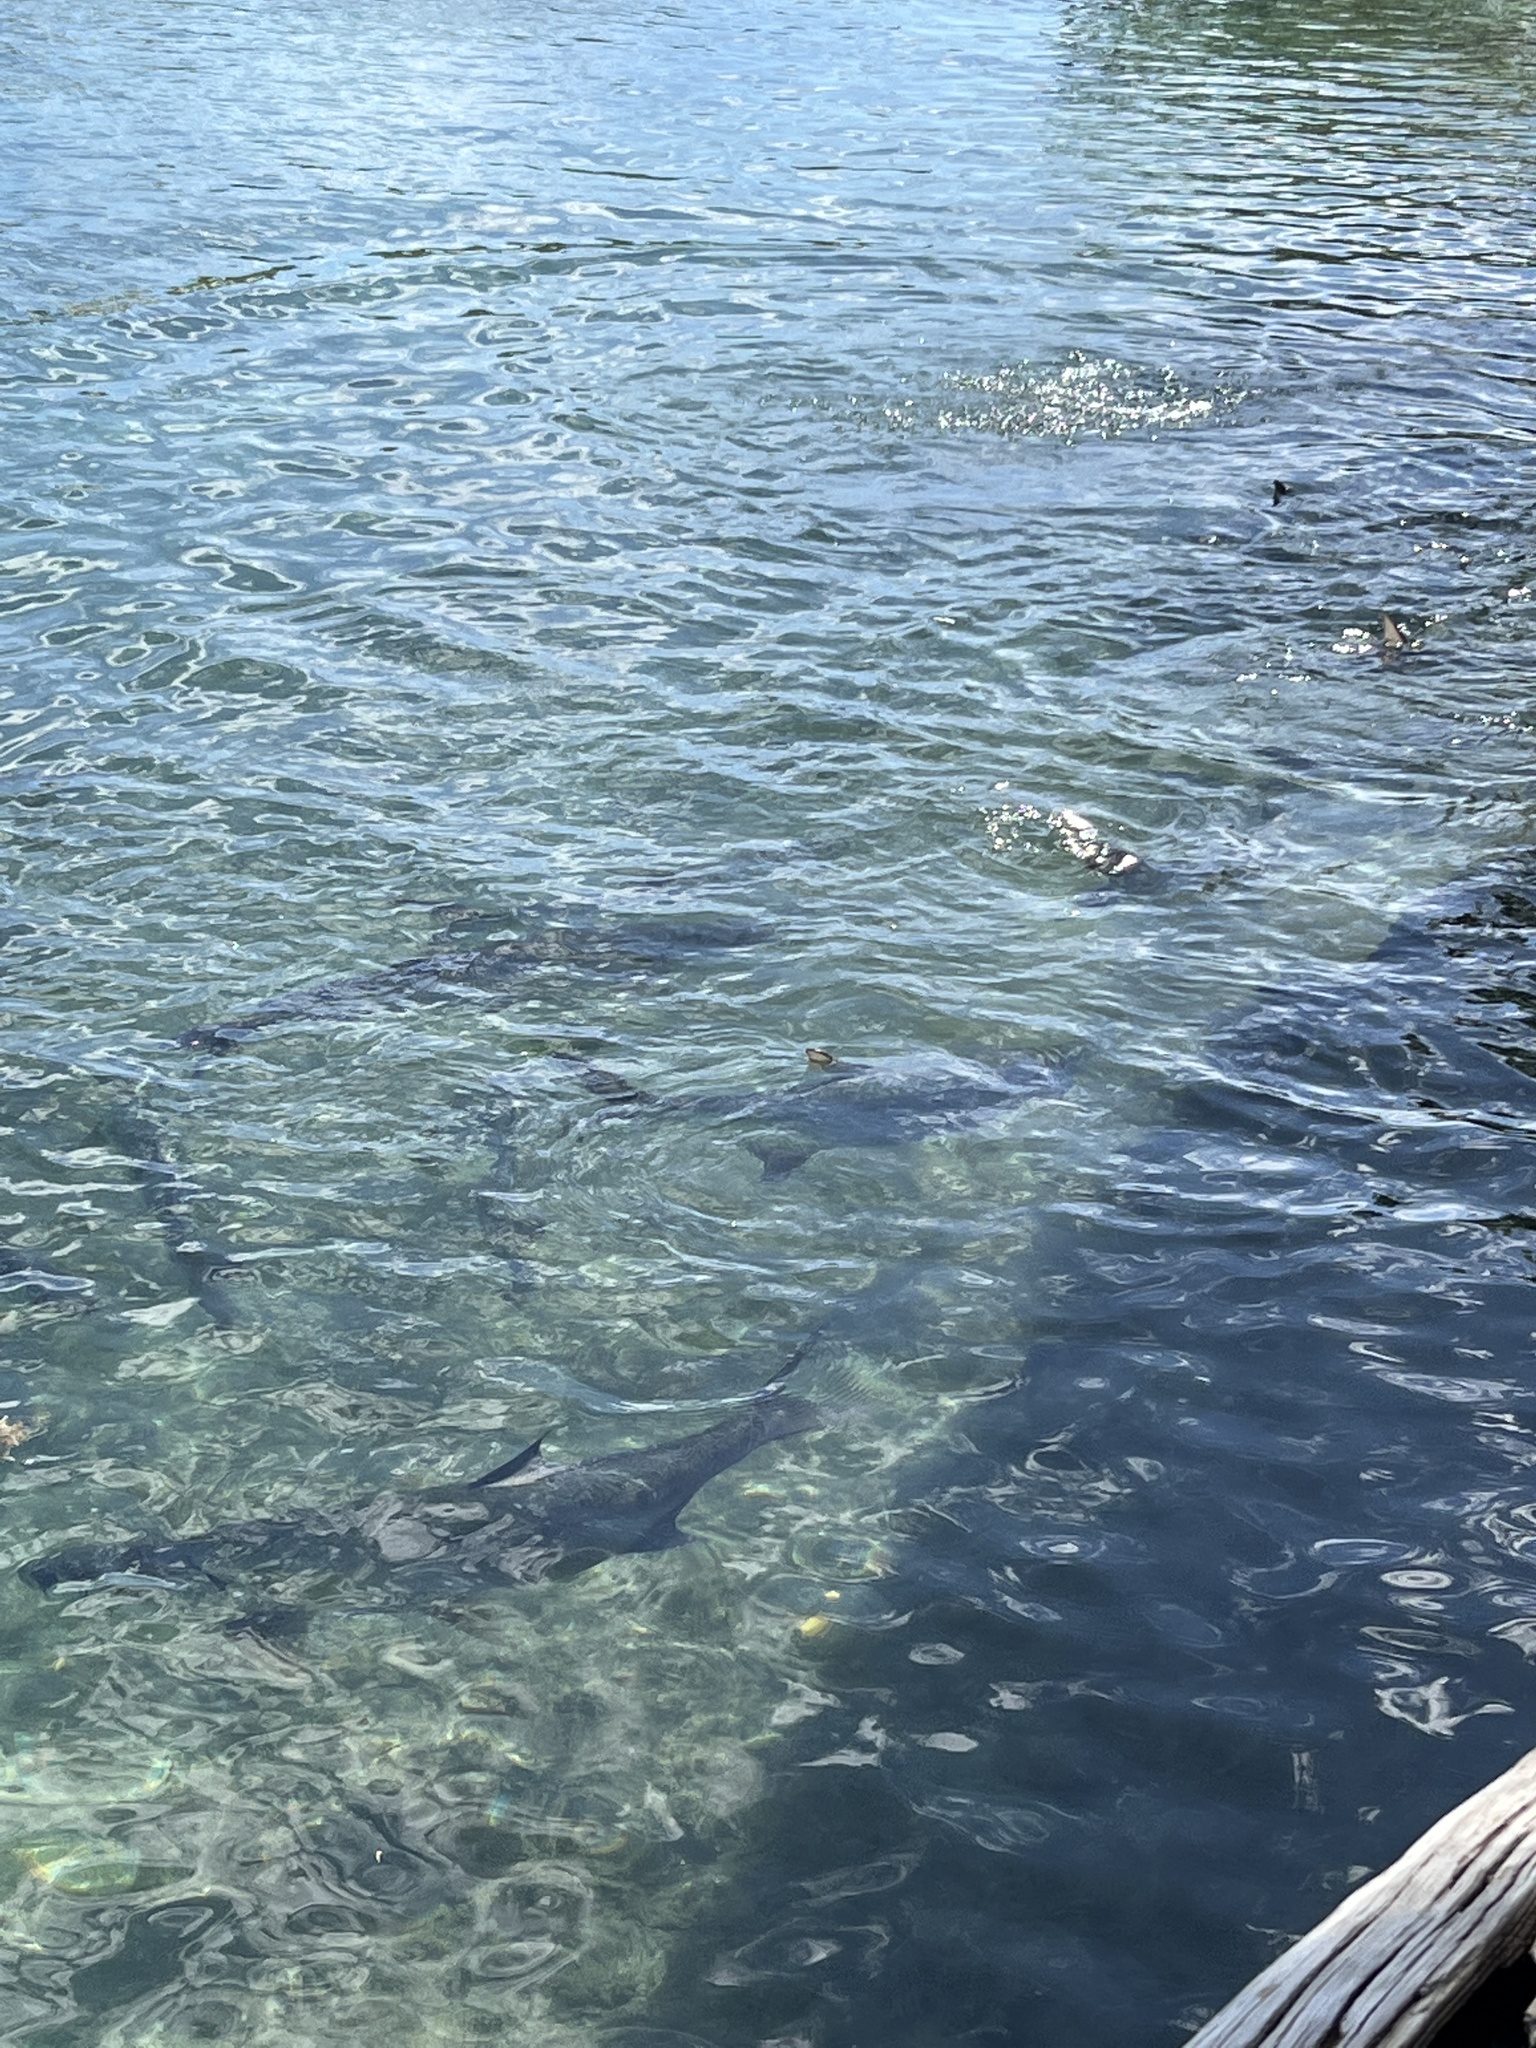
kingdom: Animalia
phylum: Chordata
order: Elopiformes
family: Megalopidae
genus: Megalops
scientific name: Megalops atlanticus
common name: Tarpon
